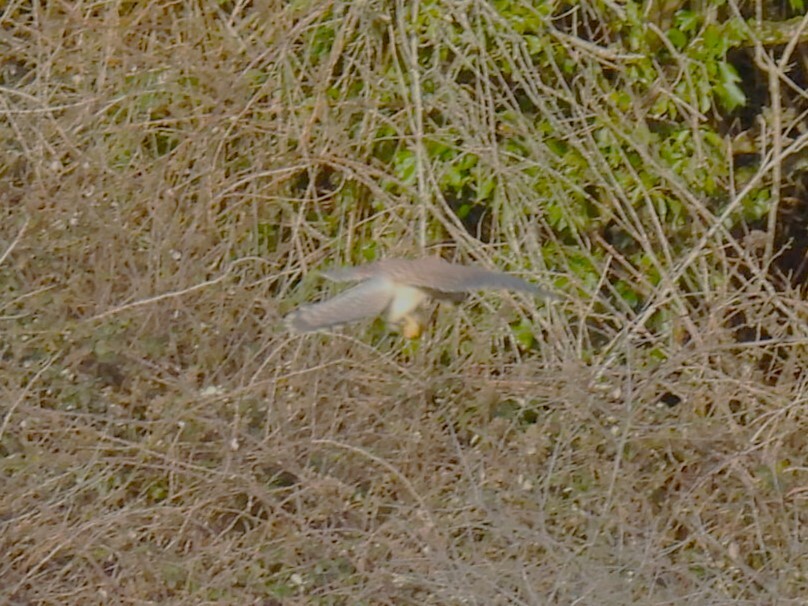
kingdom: Animalia
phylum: Chordata
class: Aves
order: Falconiformes
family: Falconidae
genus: Falco
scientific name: Falco tinnunculus
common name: Common kestrel
